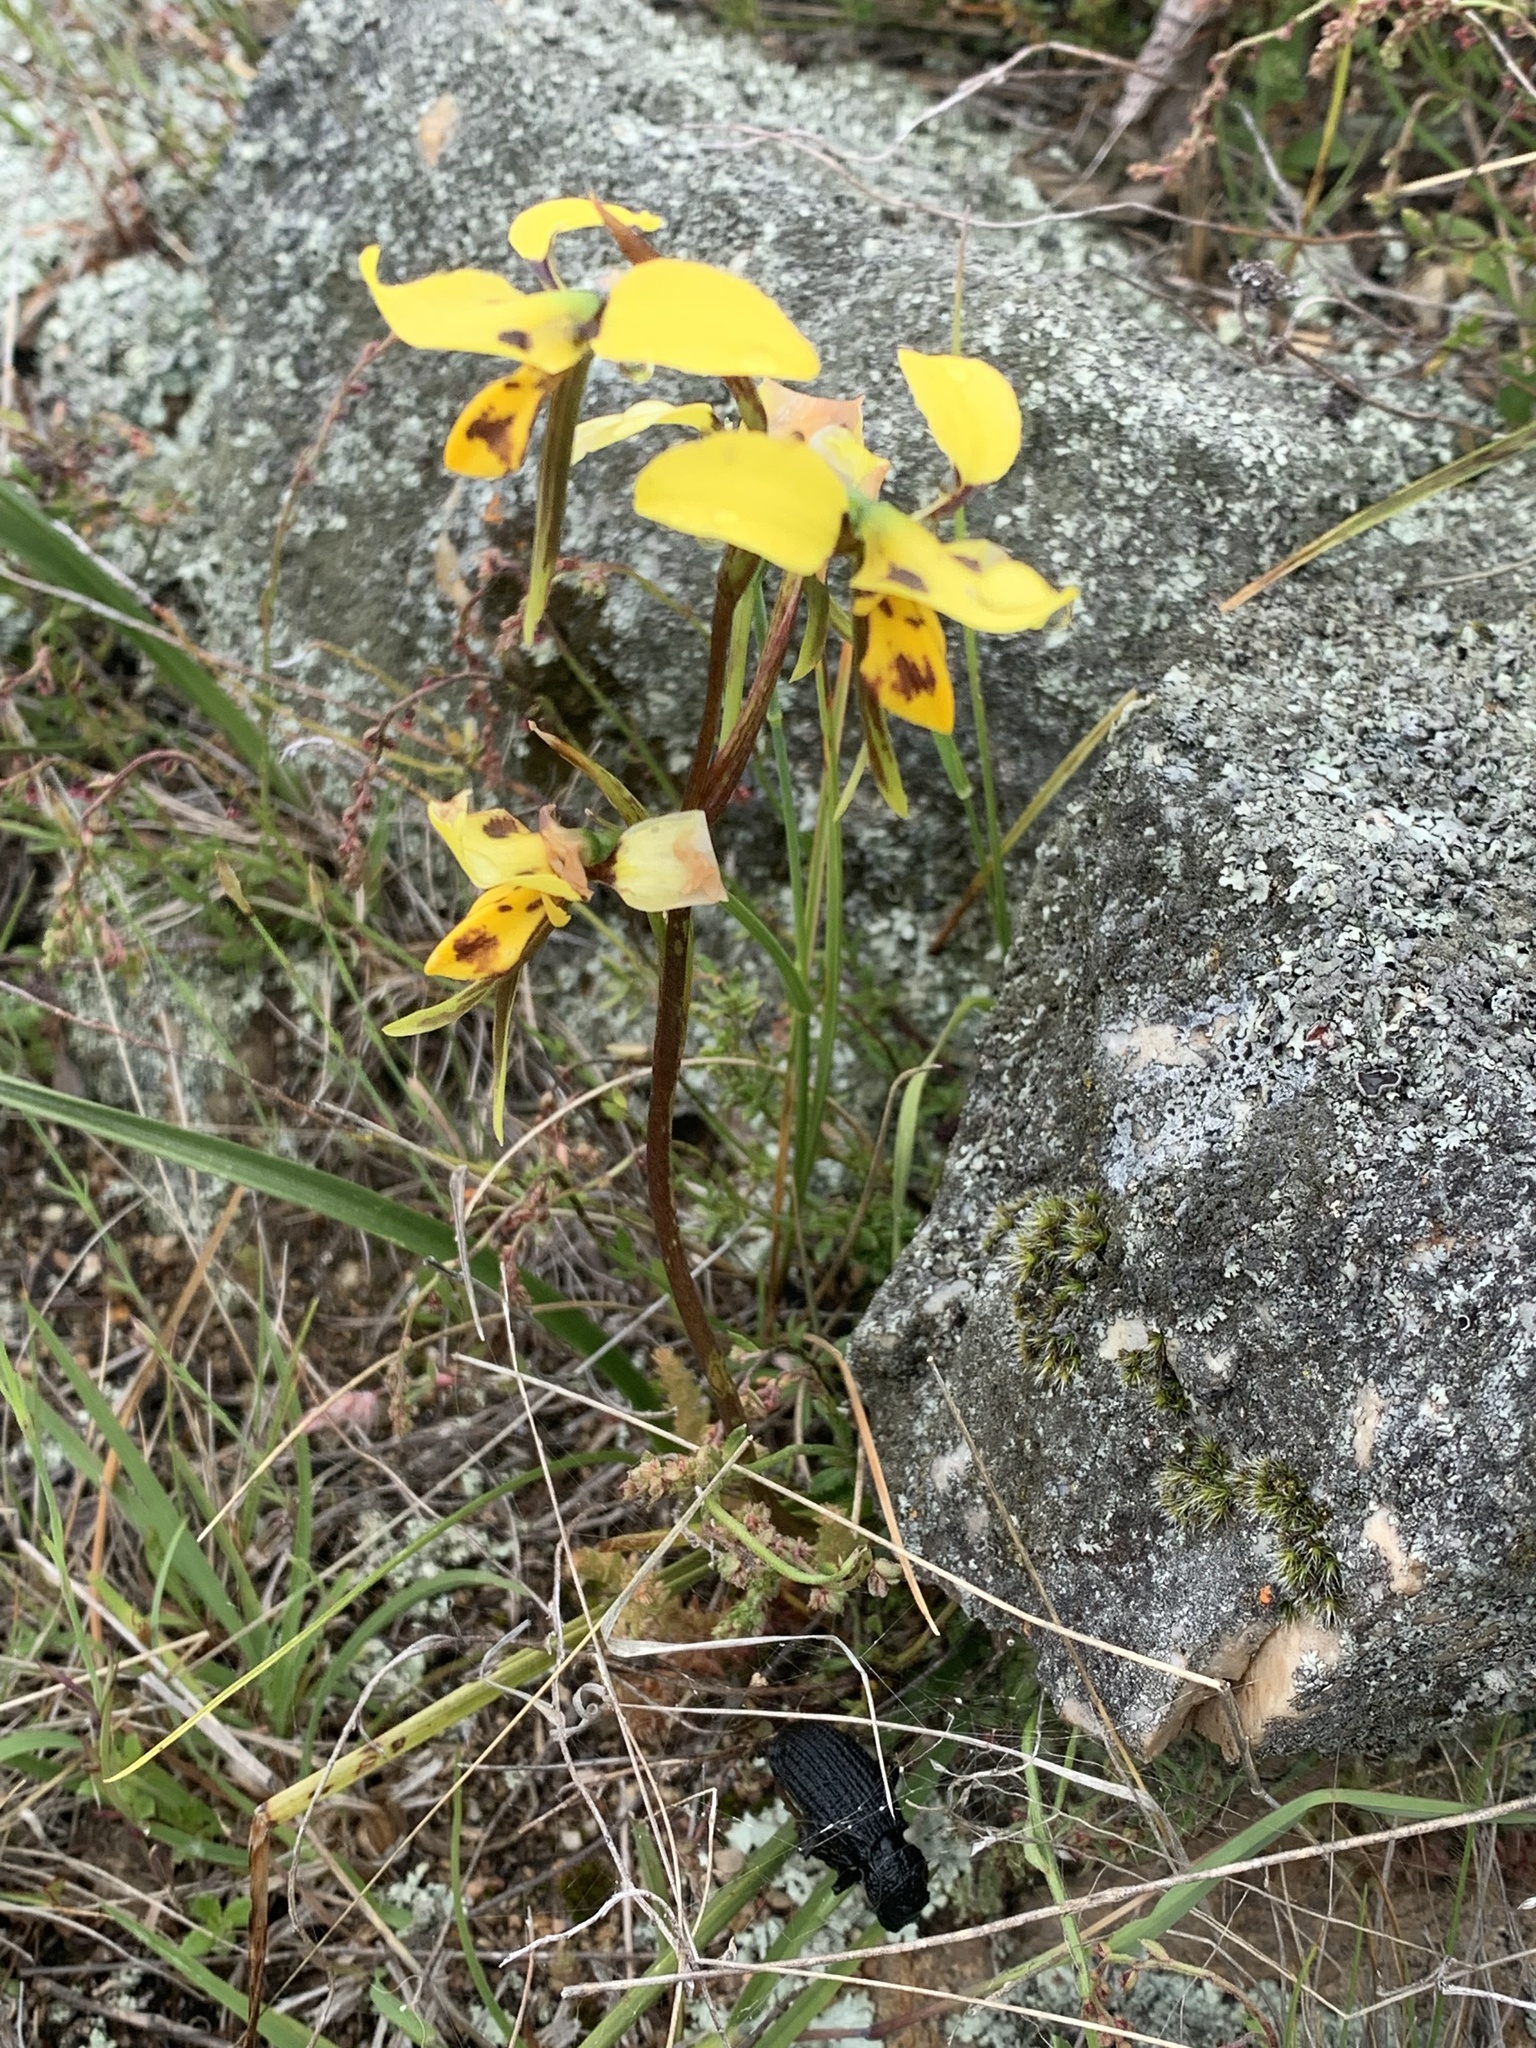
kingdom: Plantae
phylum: Tracheophyta
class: Liliopsida
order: Asparagales
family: Orchidaceae
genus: Diuris
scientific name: Diuris sulphurea
